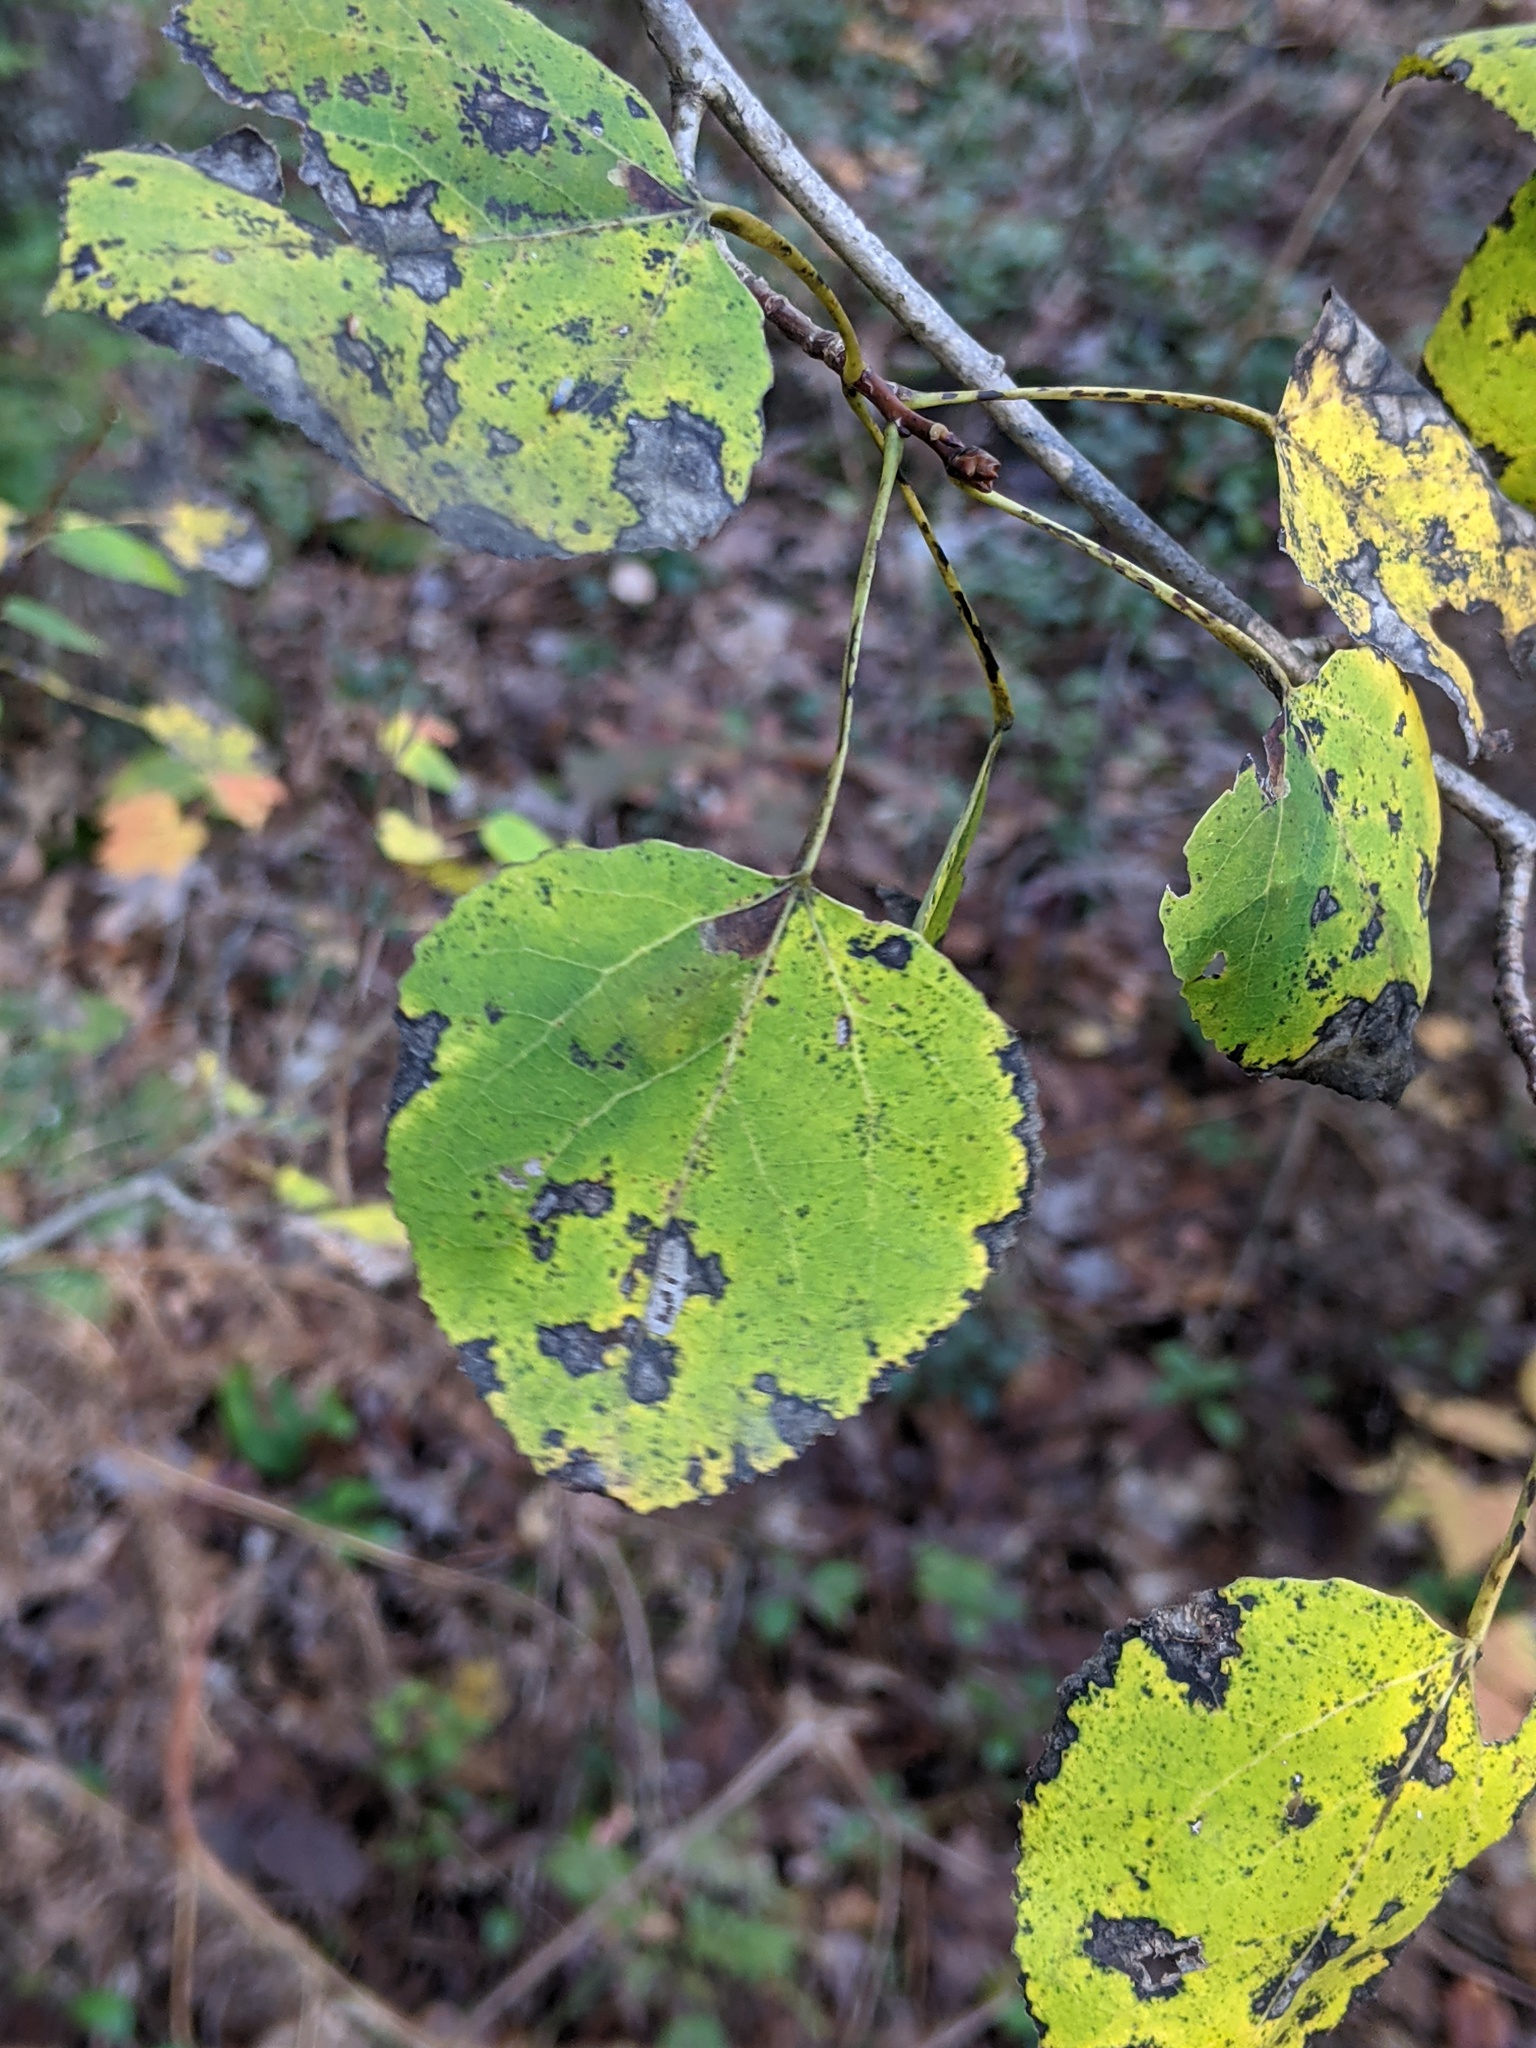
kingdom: Plantae
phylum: Tracheophyta
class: Magnoliopsida
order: Malpighiales
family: Salicaceae
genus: Populus
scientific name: Populus tremuloides
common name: Quaking aspen
